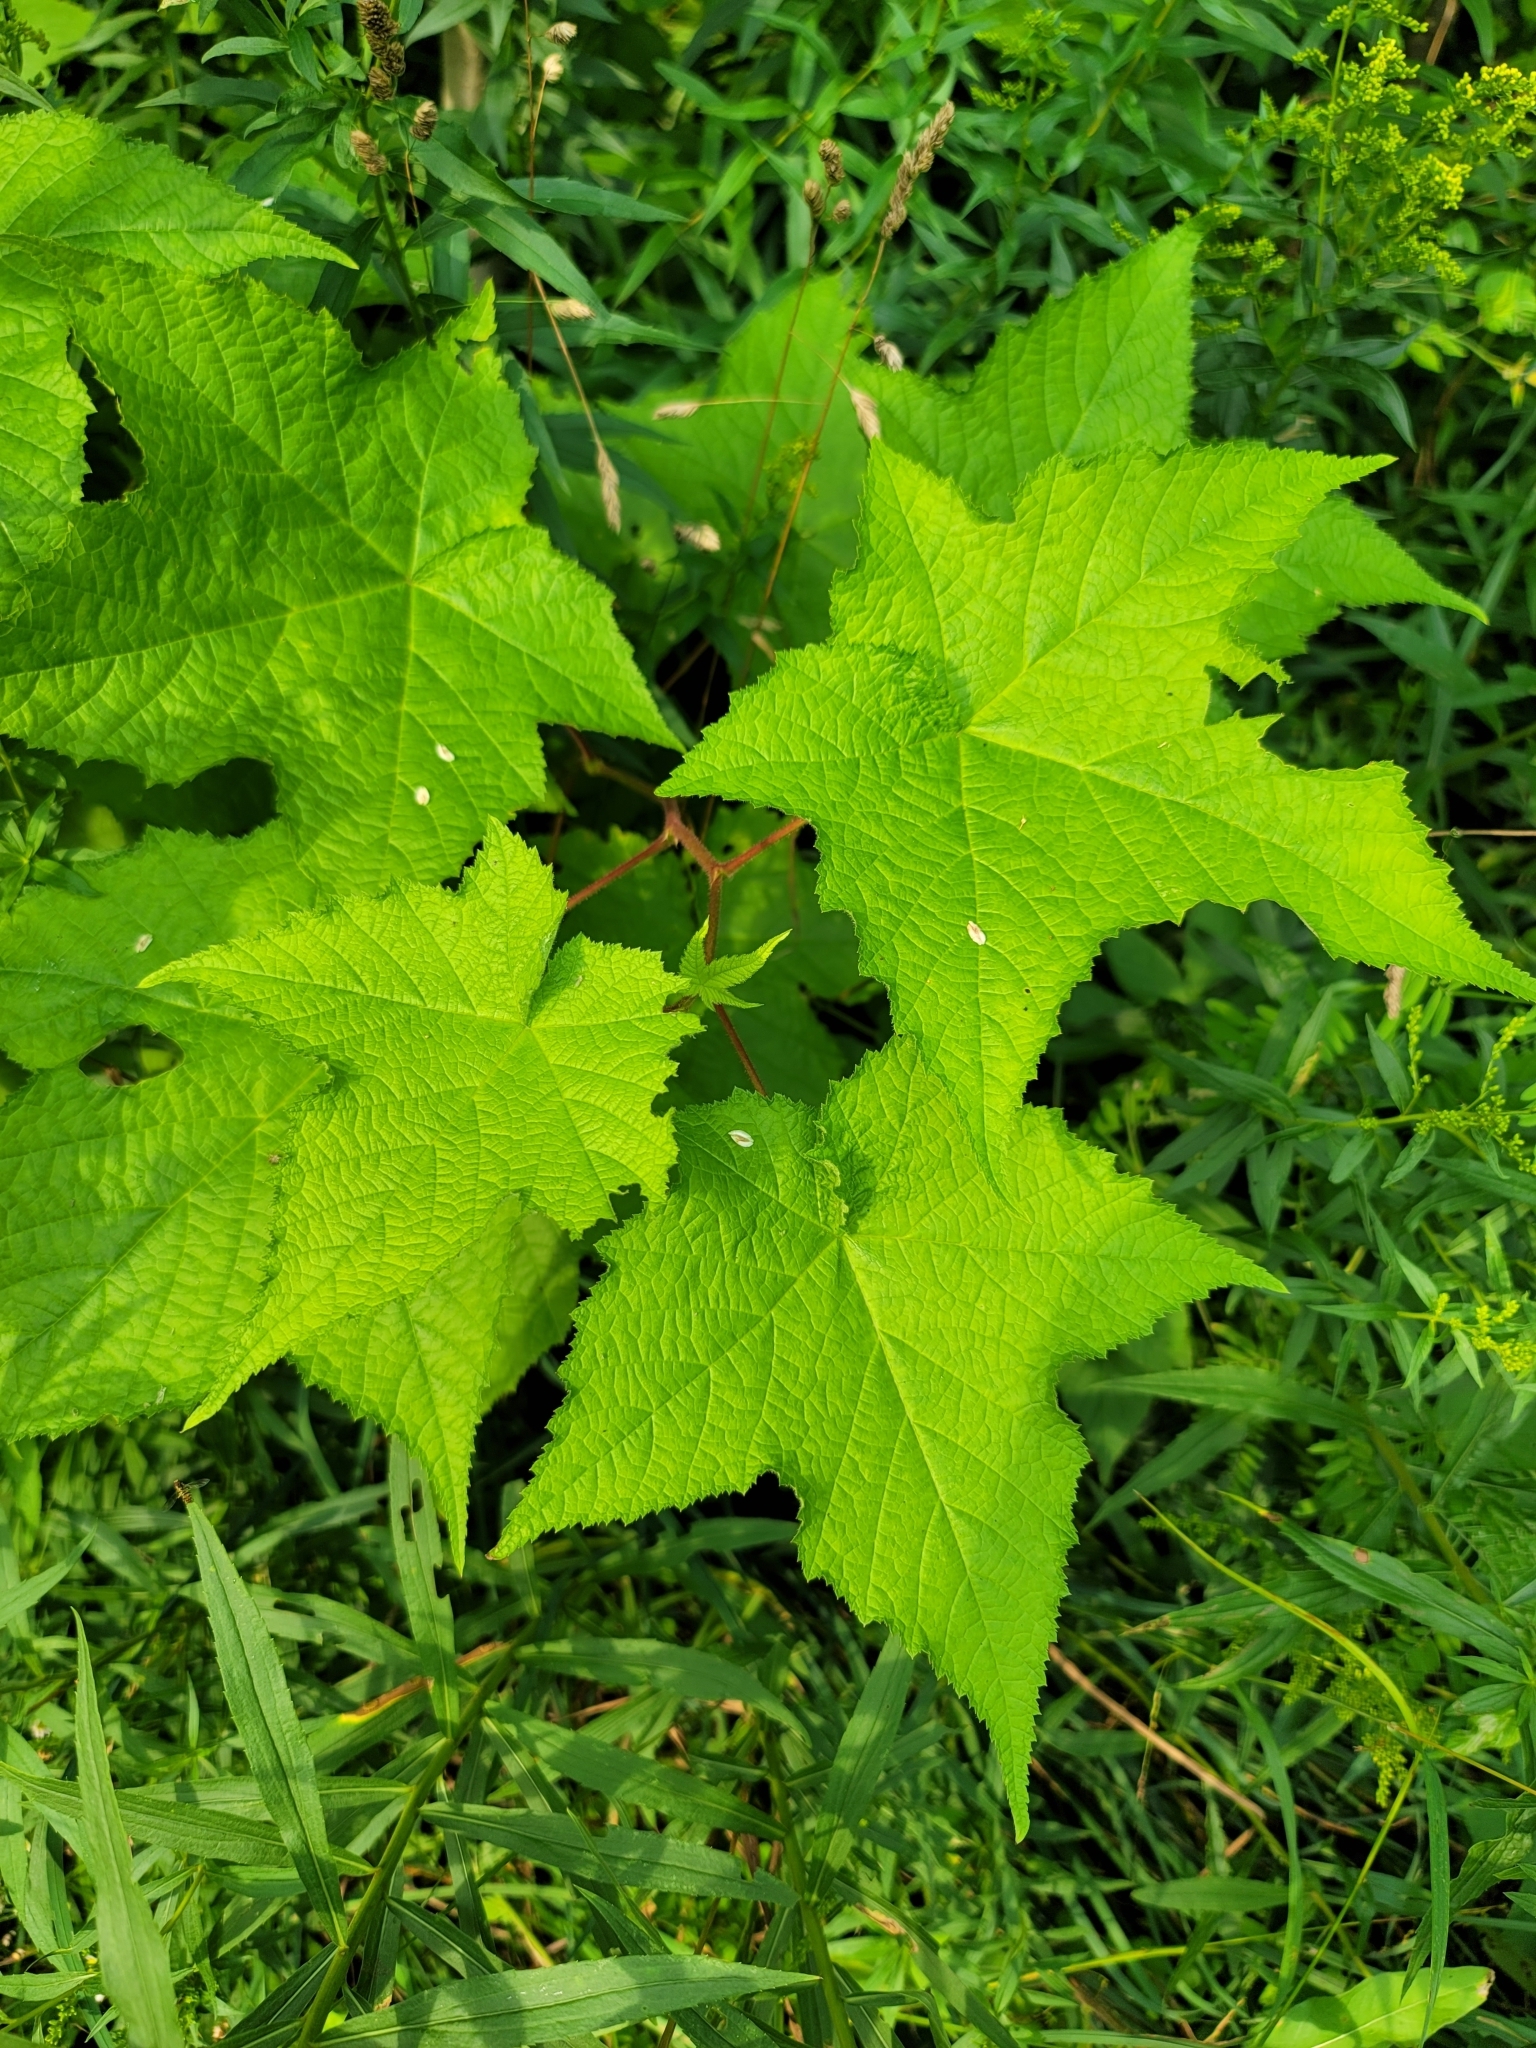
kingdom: Plantae
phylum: Tracheophyta
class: Magnoliopsida
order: Rosales
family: Rosaceae
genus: Rubus
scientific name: Rubus odoratus
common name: Purple-flowered raspberry
